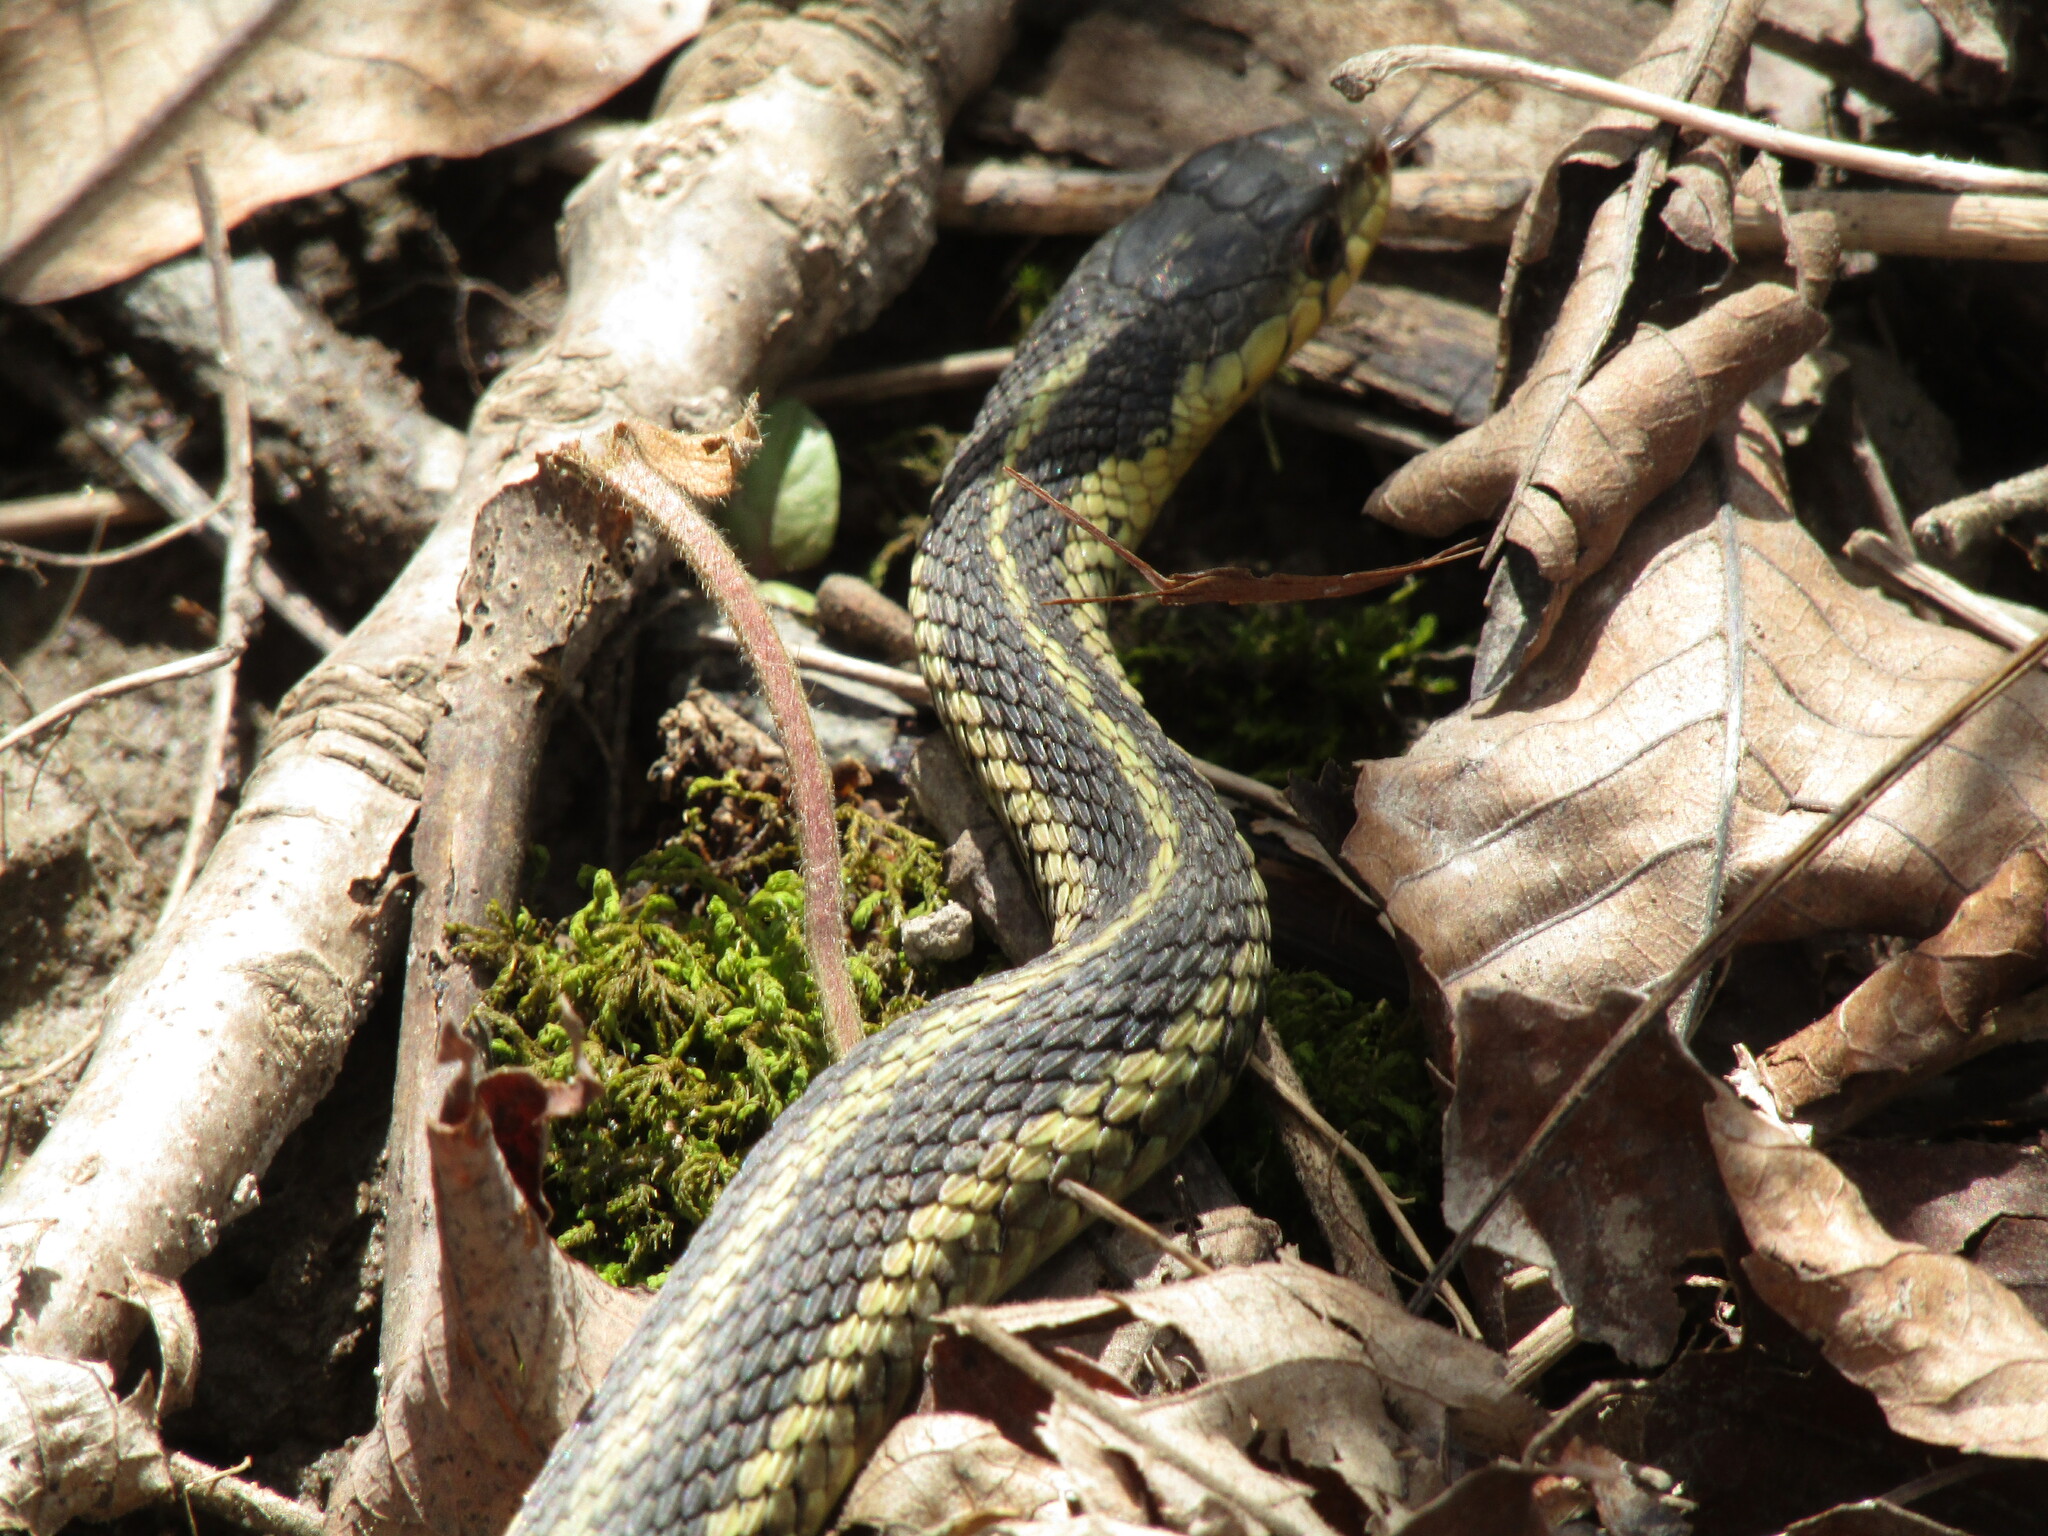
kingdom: Animalia
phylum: Chordata
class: Squamata
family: Colubridae
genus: Thamnophis
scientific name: Thamnophis sirtalis
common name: Common garter snake
